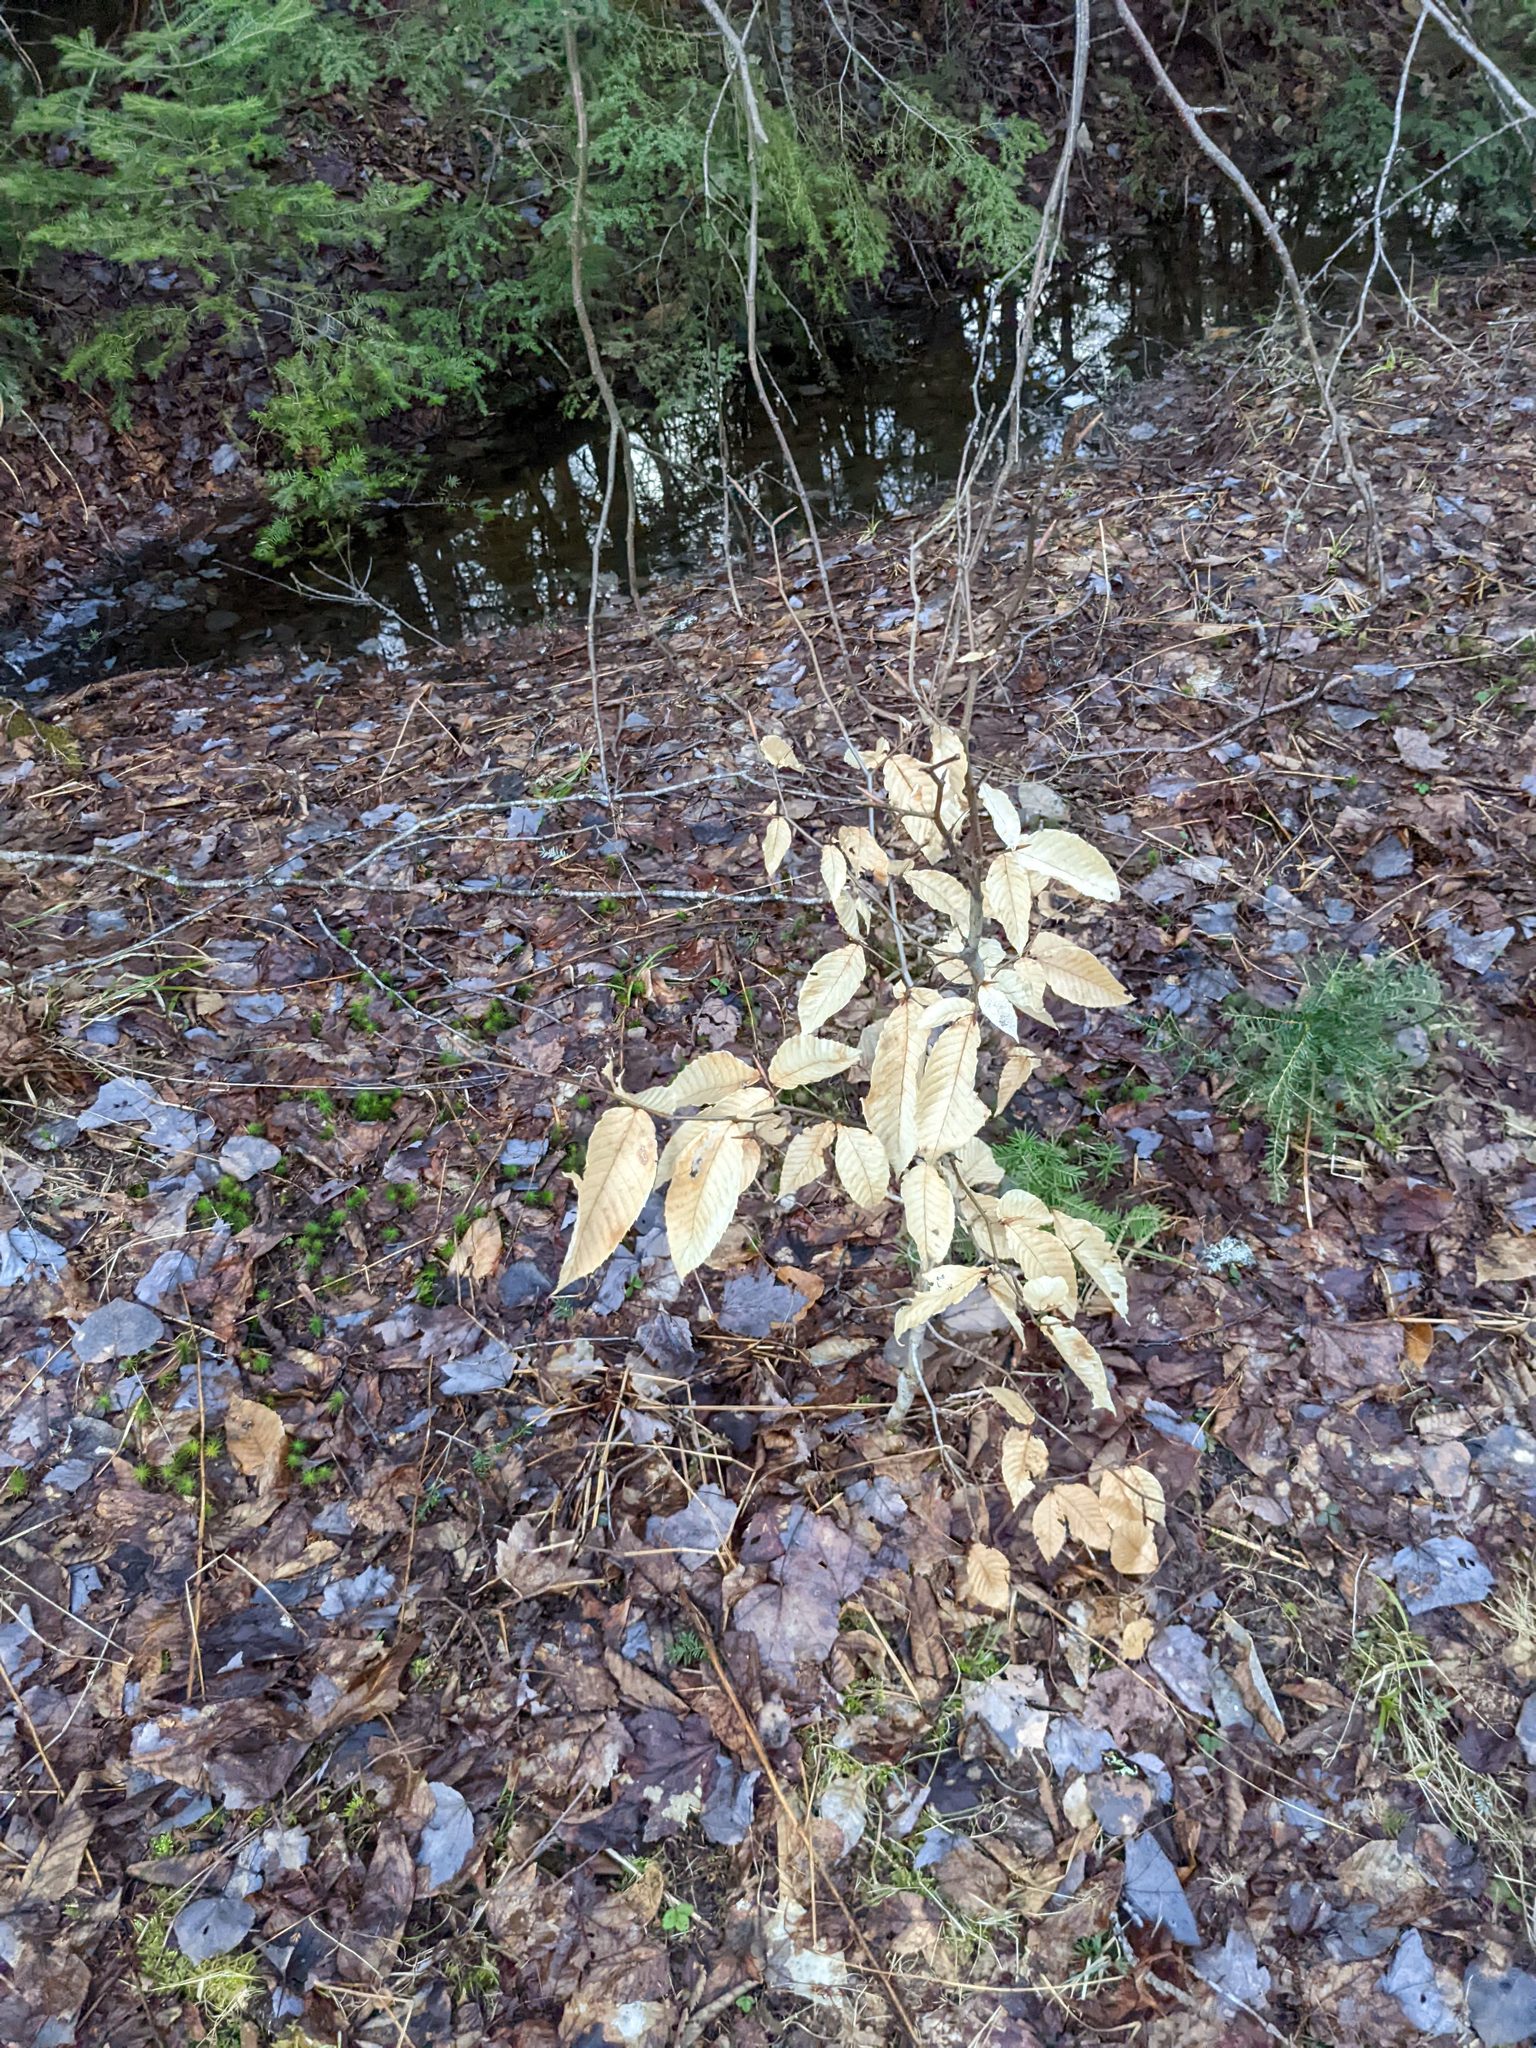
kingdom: Plantae
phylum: Tracheophyta
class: Magnoliopsida
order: Fagales
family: Fagaceae
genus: Fagus
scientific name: Fagus grandifolia
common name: American beech
